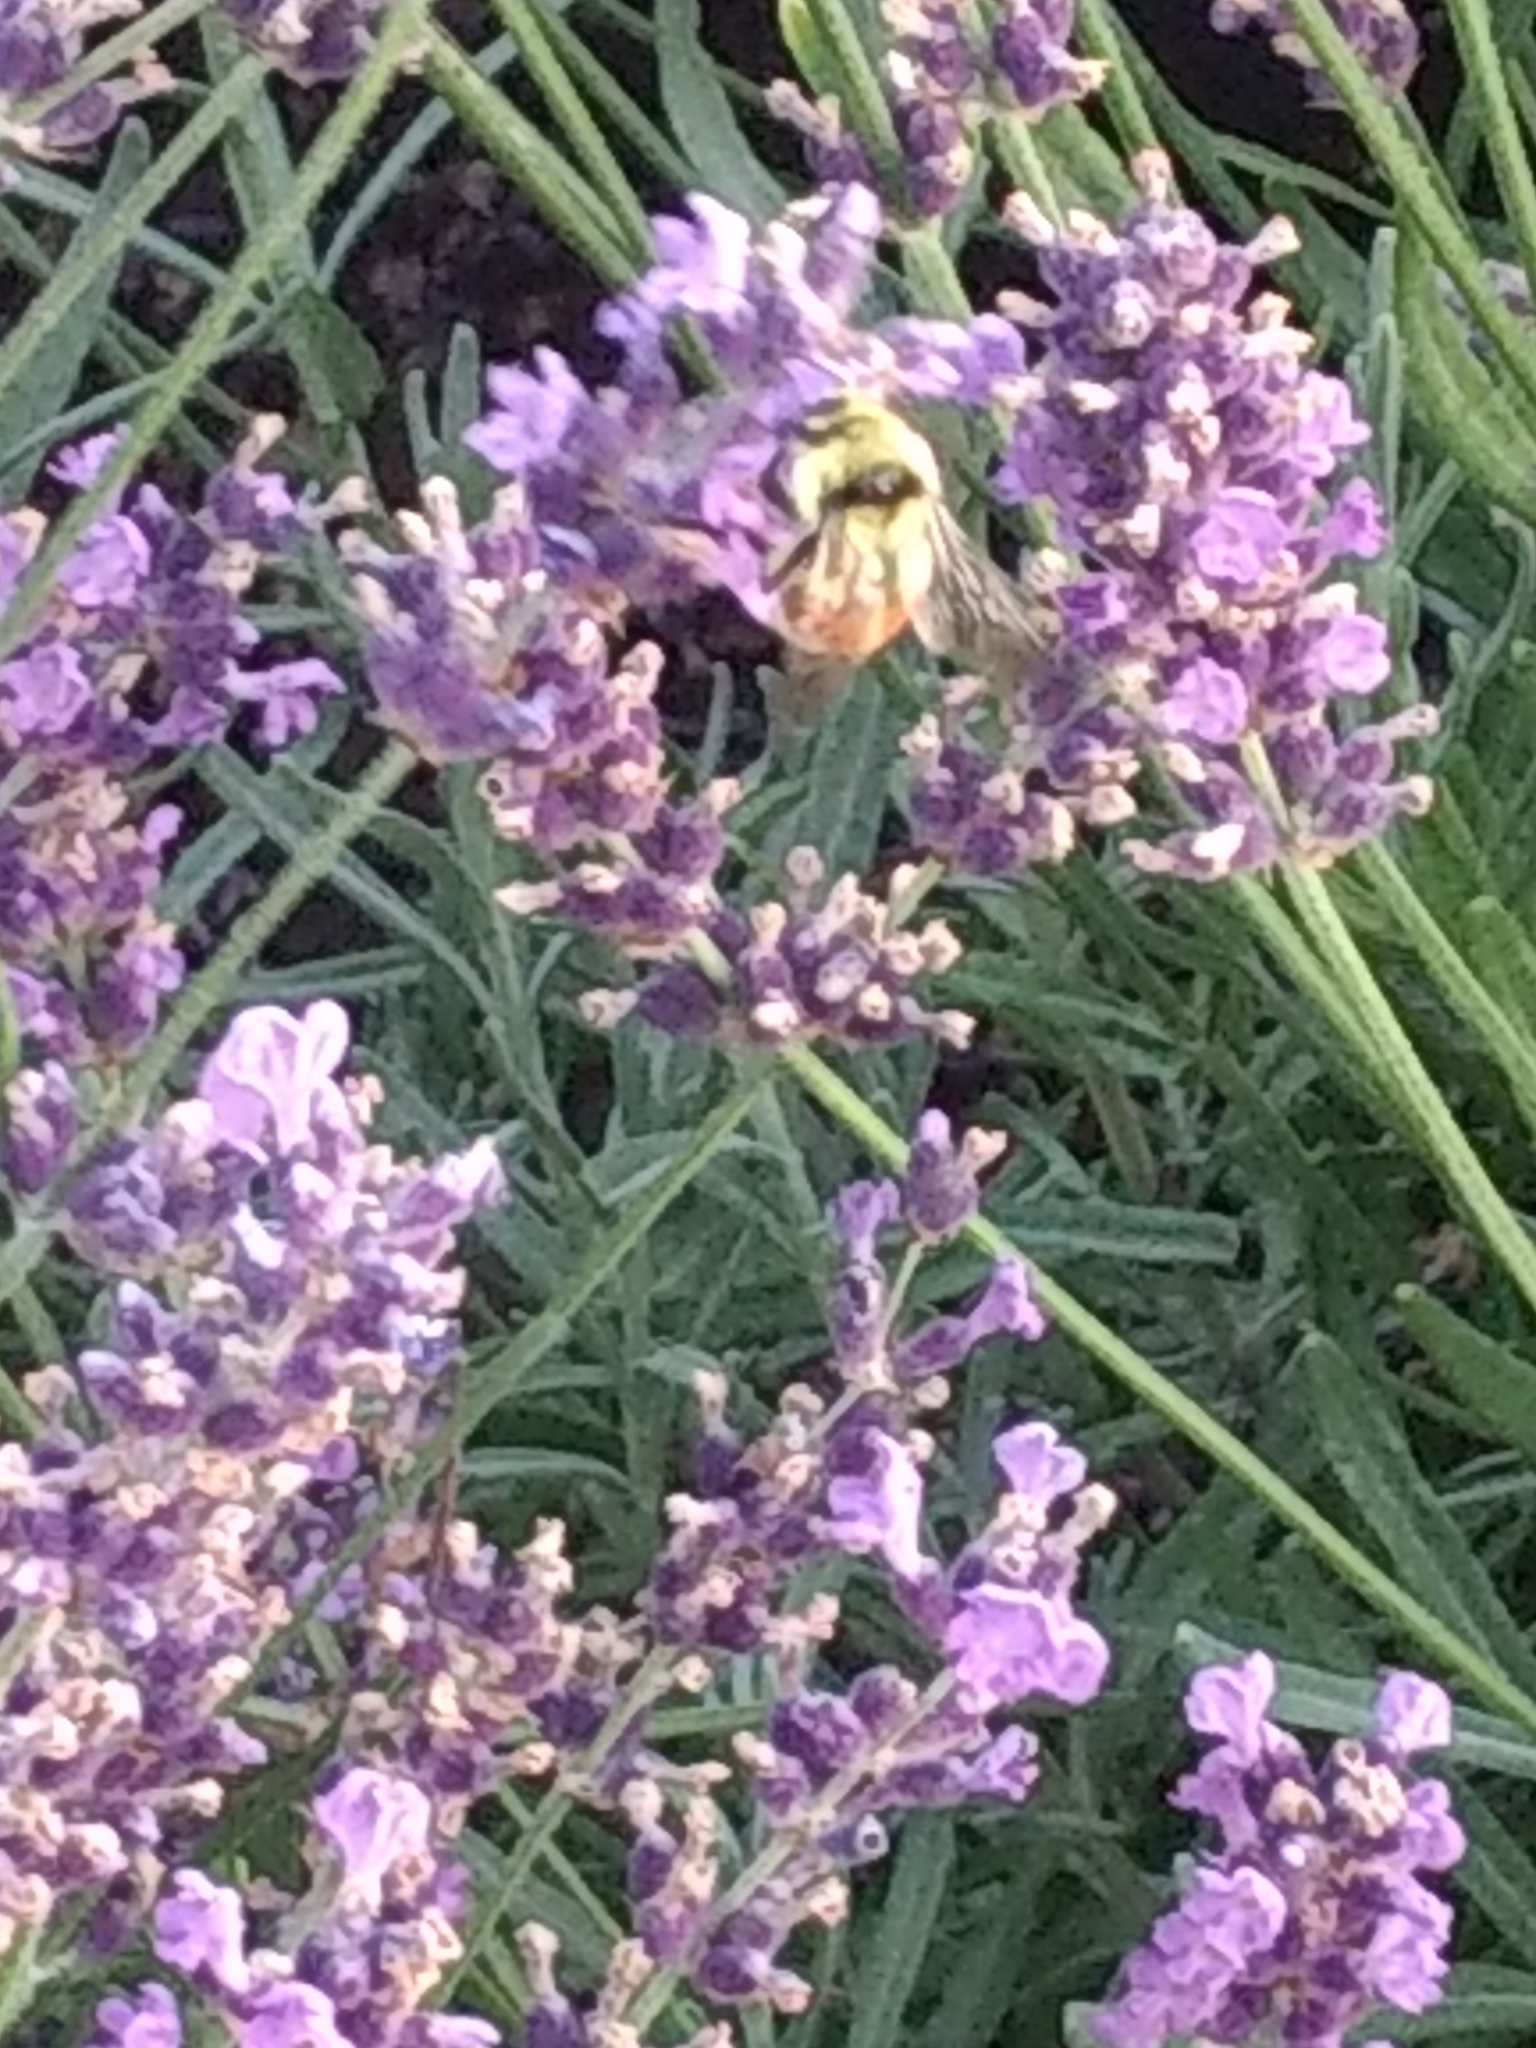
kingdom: Animalia
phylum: Arthropoda
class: Insecta
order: Hymenoptera
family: Apidae
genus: Bombus
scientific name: Bombus huntii
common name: Hunt bumble bee
